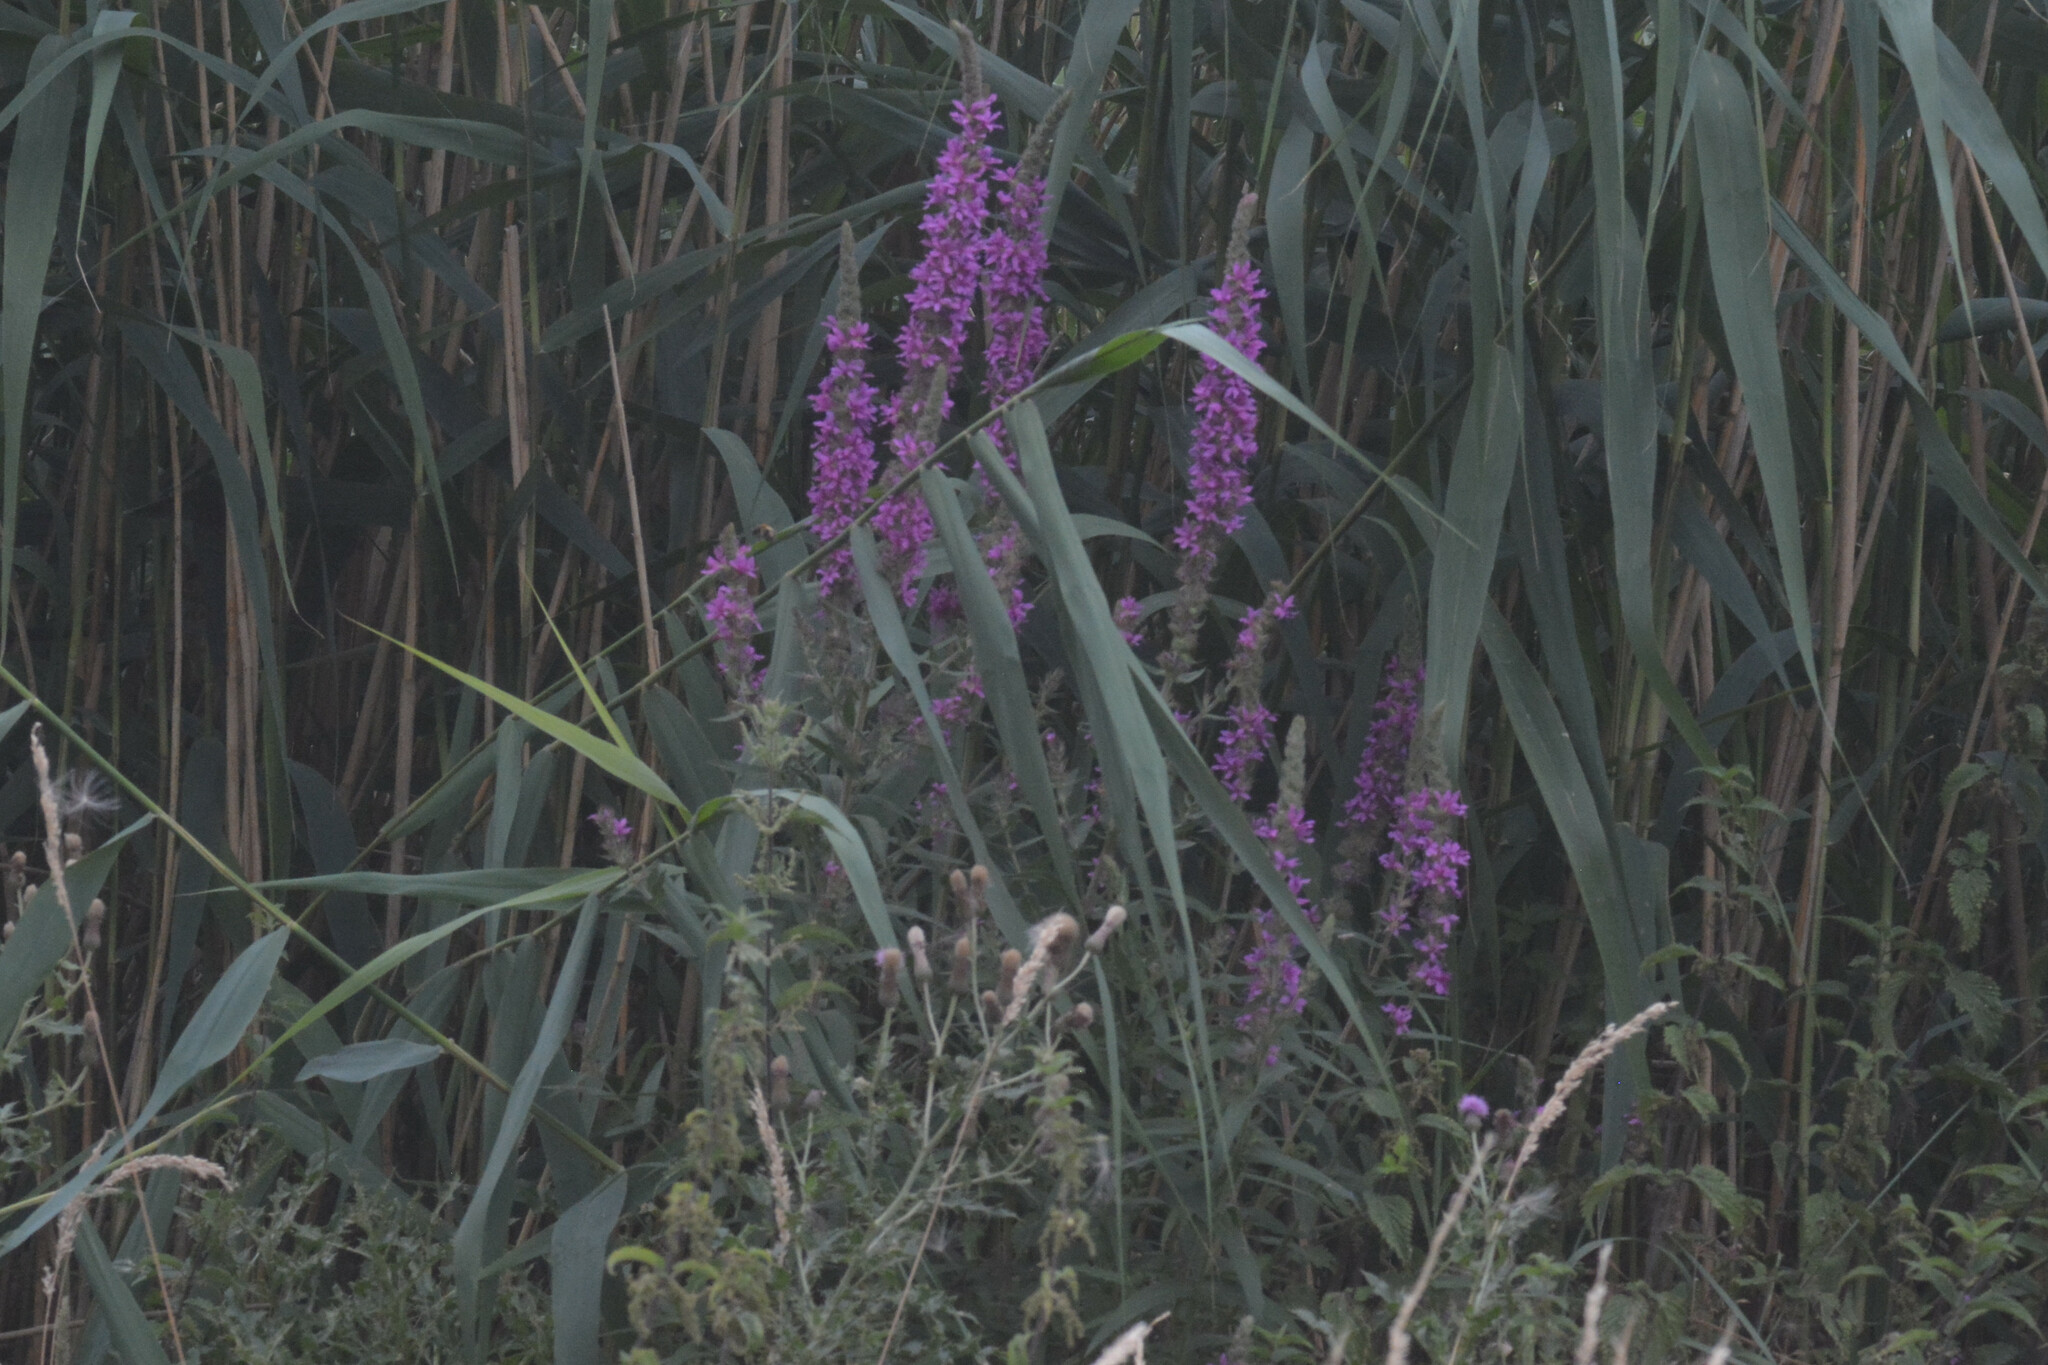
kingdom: Plantae
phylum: Tracheophyta
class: Magnoliopsida
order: Myrtales
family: Lythraceae
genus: Lythrum
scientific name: Lythrum salicaria
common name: Purple loosestrife
